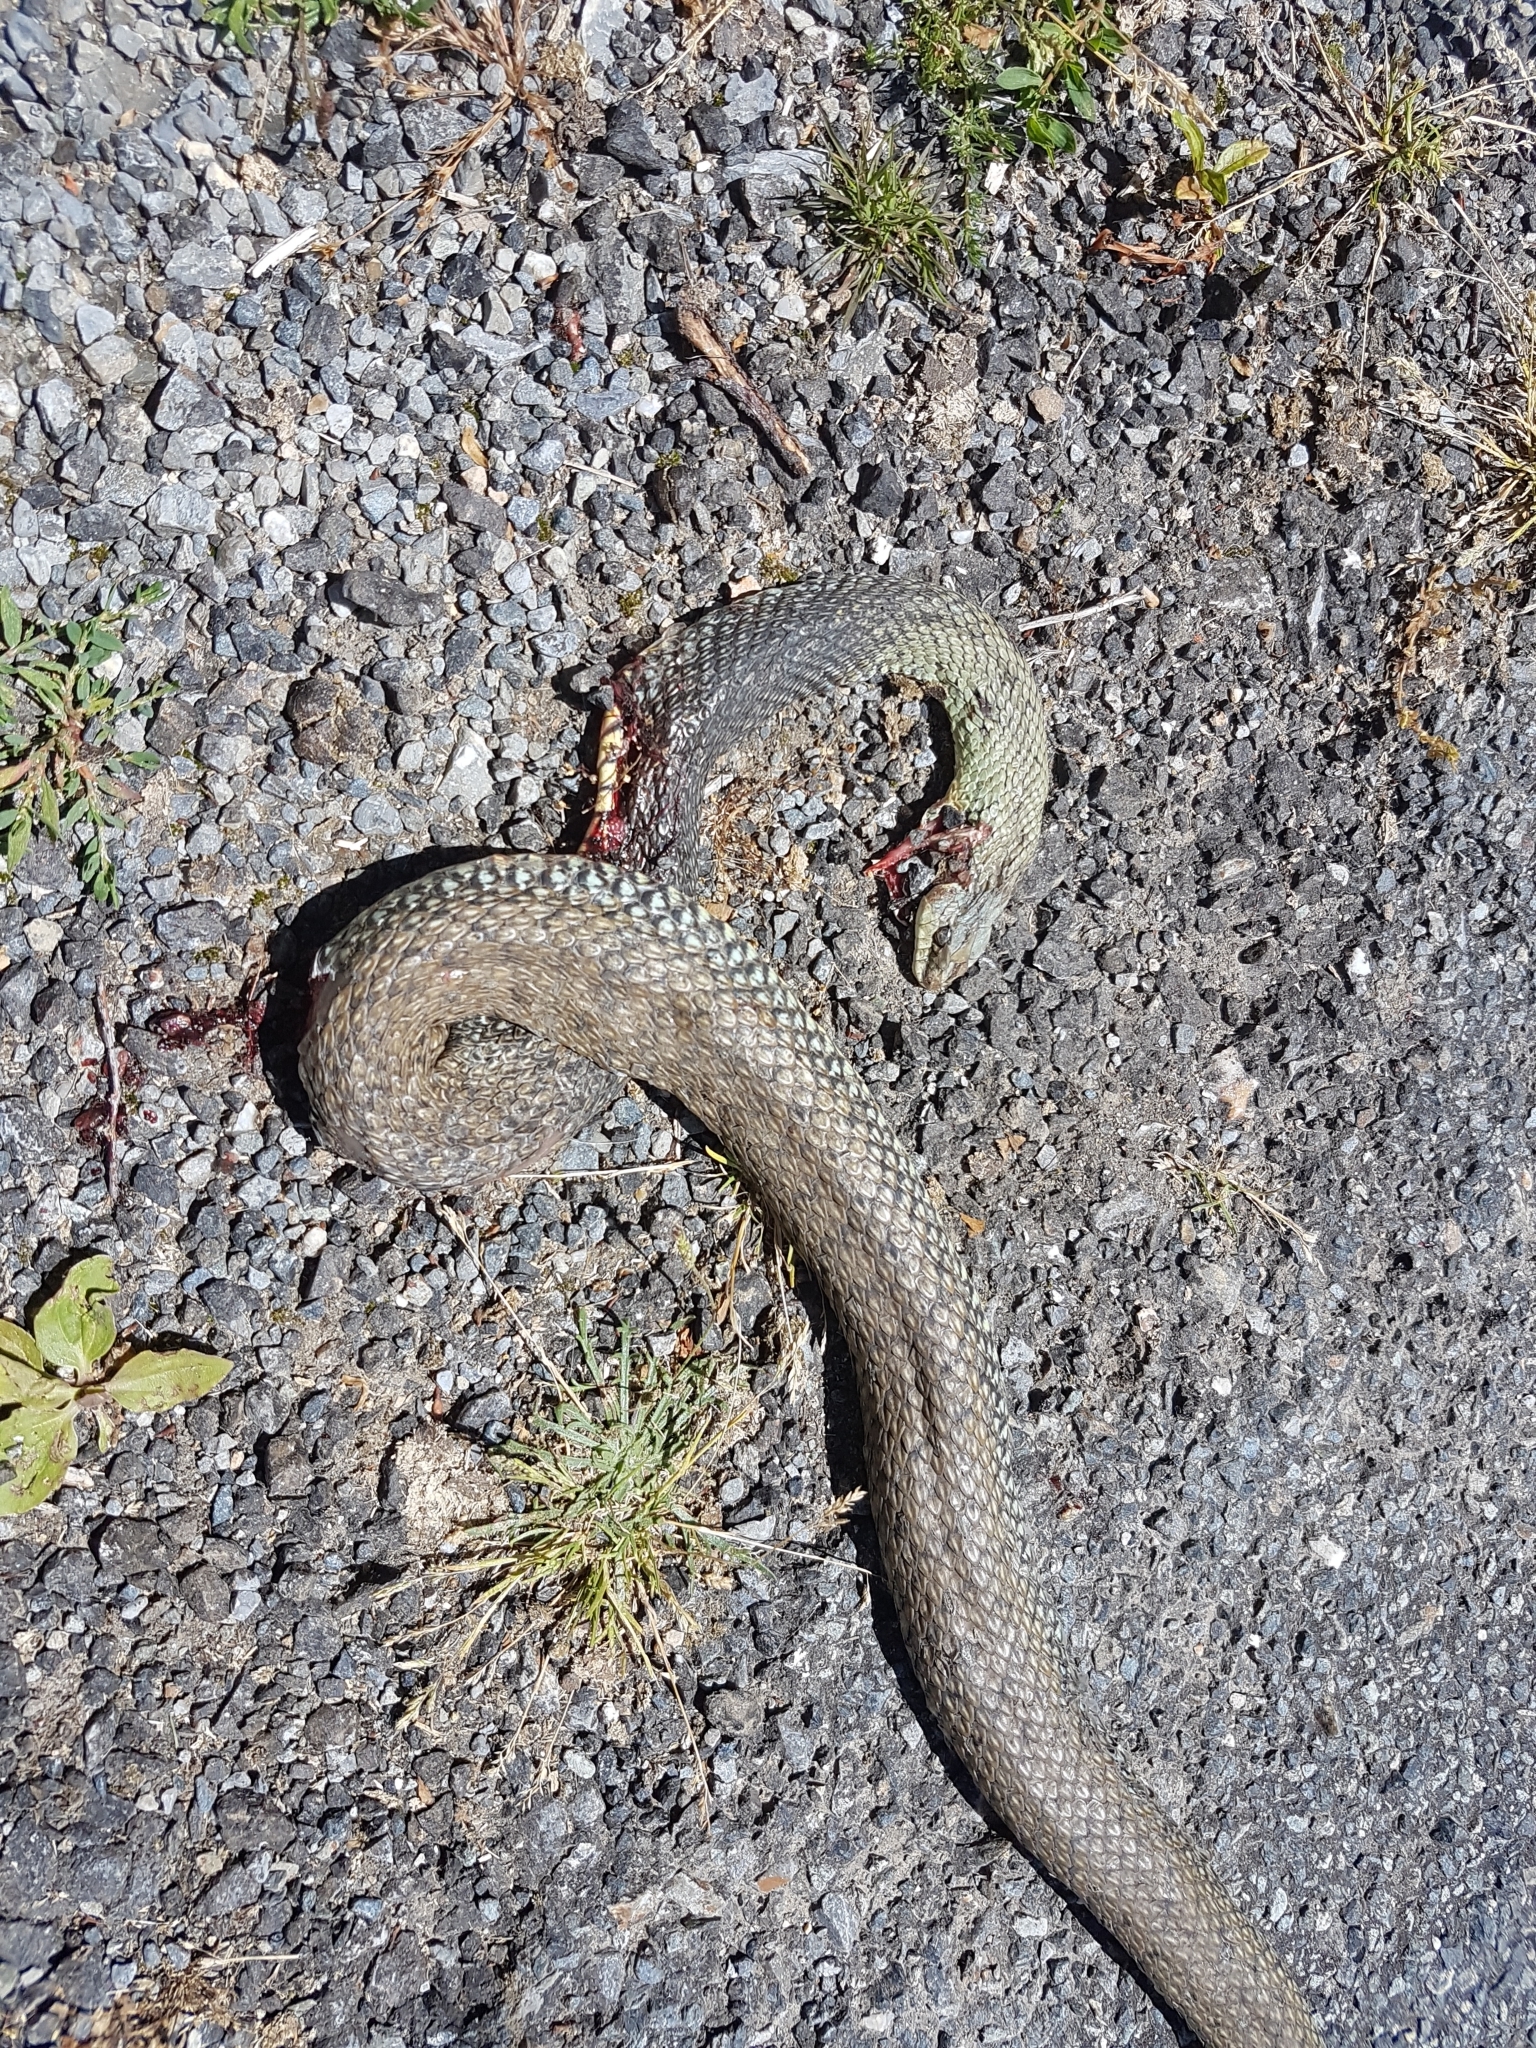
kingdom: Animalia
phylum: Chordata
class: Squamata
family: Psammophiidae
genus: Malpolon
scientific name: Malpolon monspessulanus
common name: Montpellier snake
